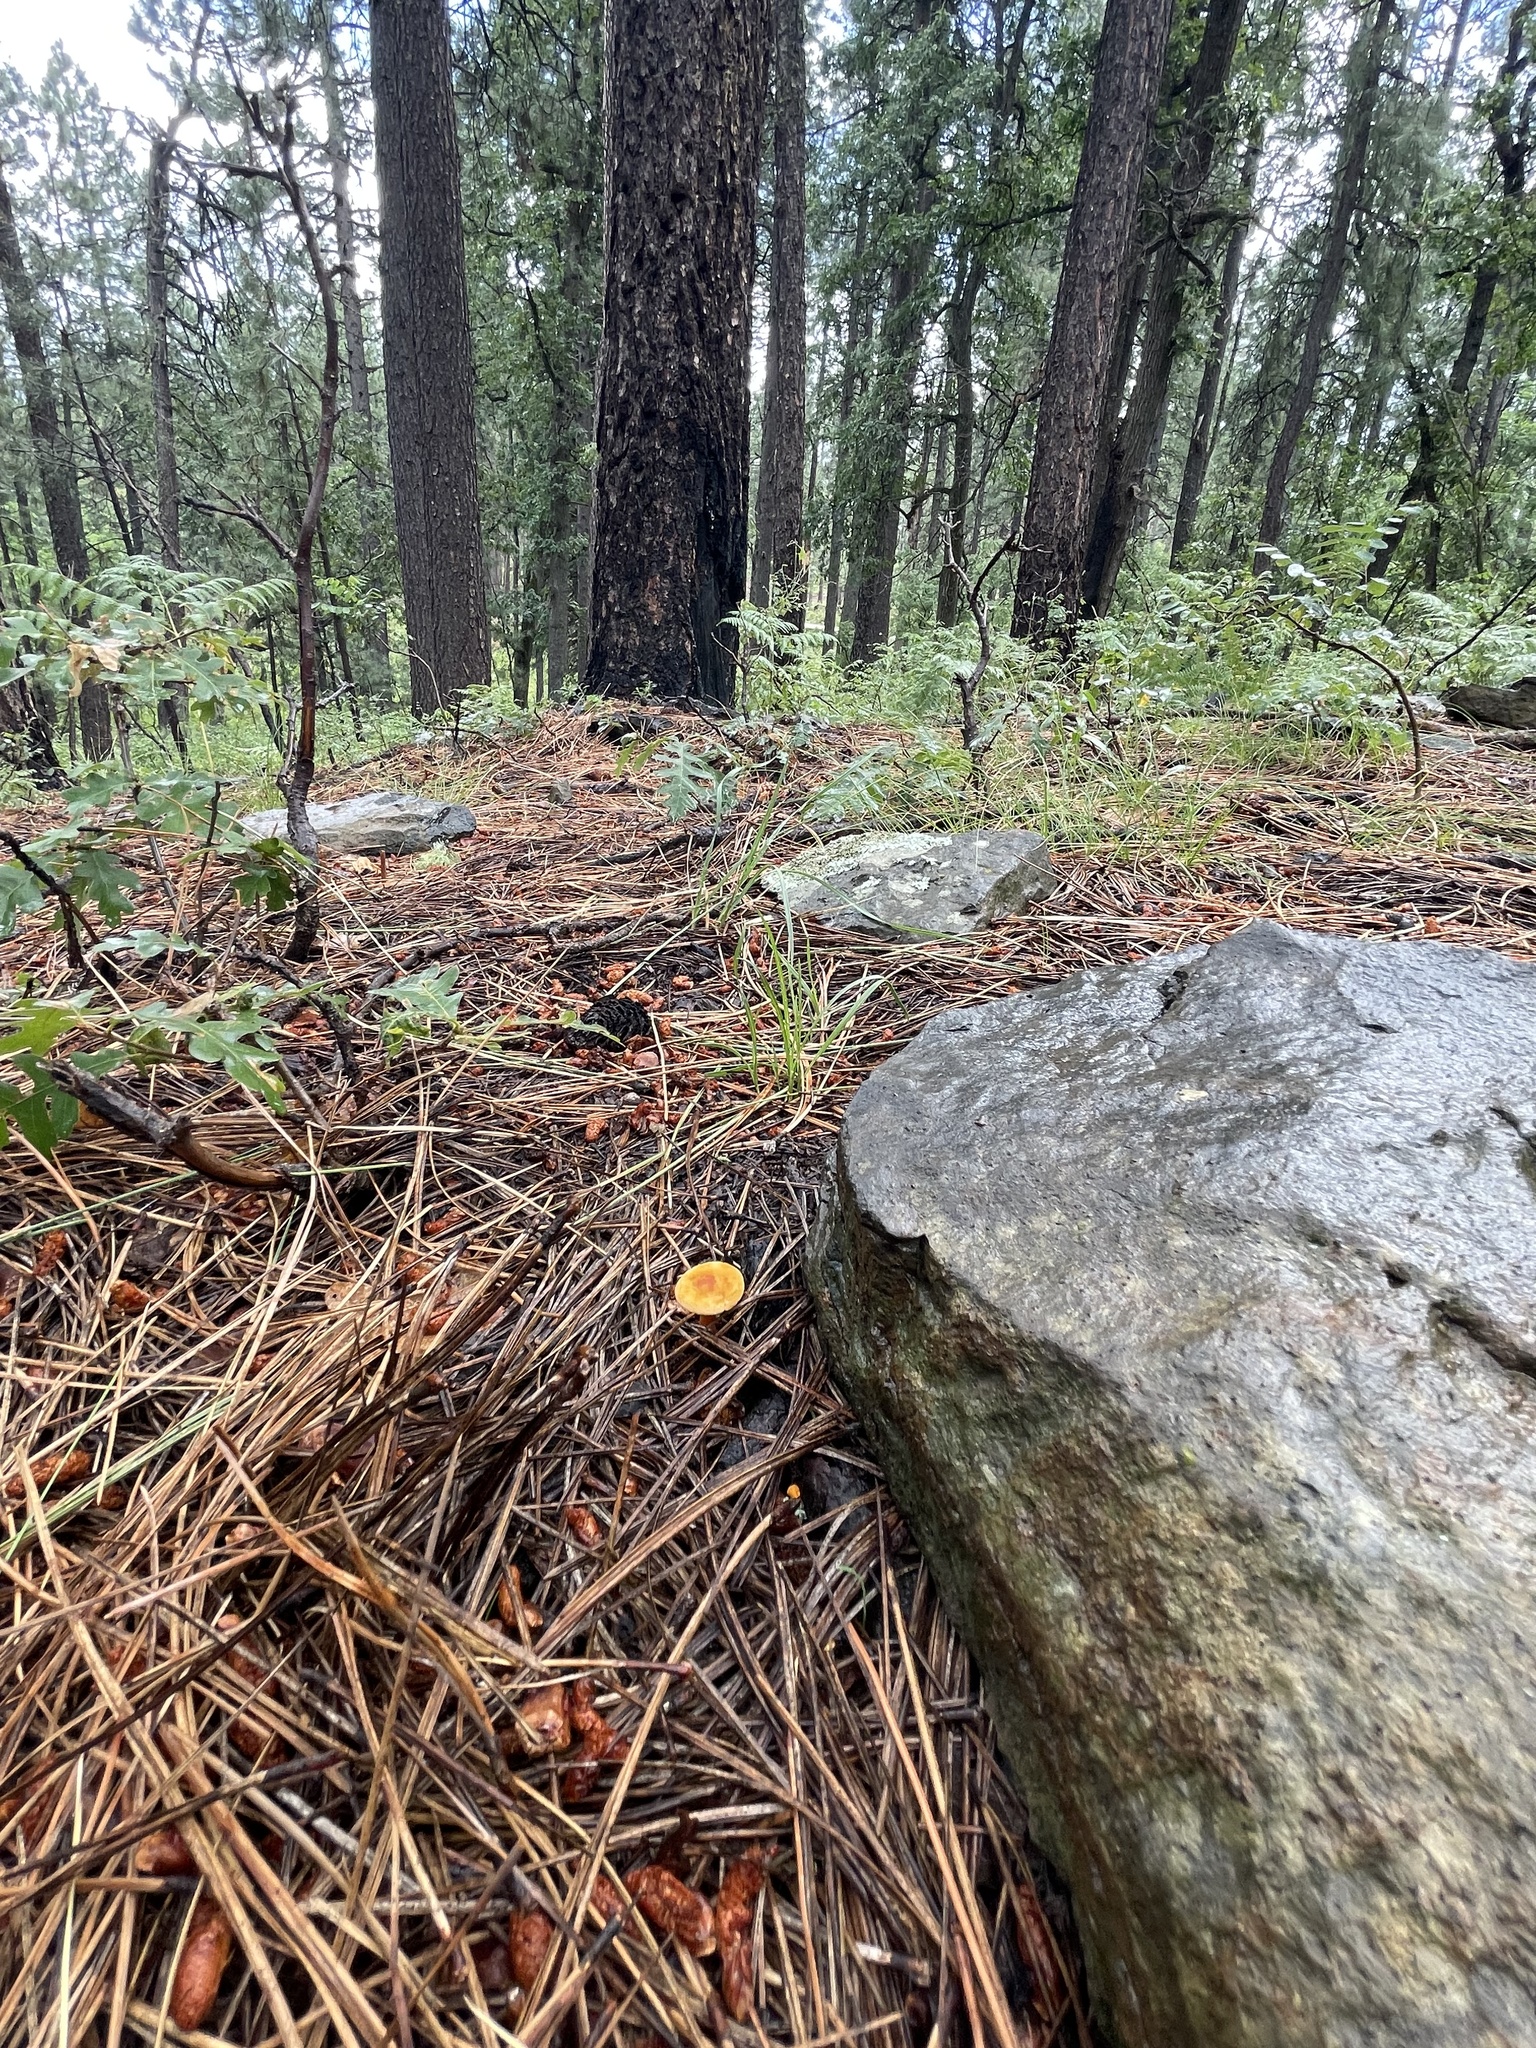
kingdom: Fungi
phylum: Basidiomycota
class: Agaricomycetes
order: Boletales
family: Hygrophoropsidaceae
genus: Hygrophoropsis
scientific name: Hygrophoropsis aurantiaca
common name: False chanterelle
